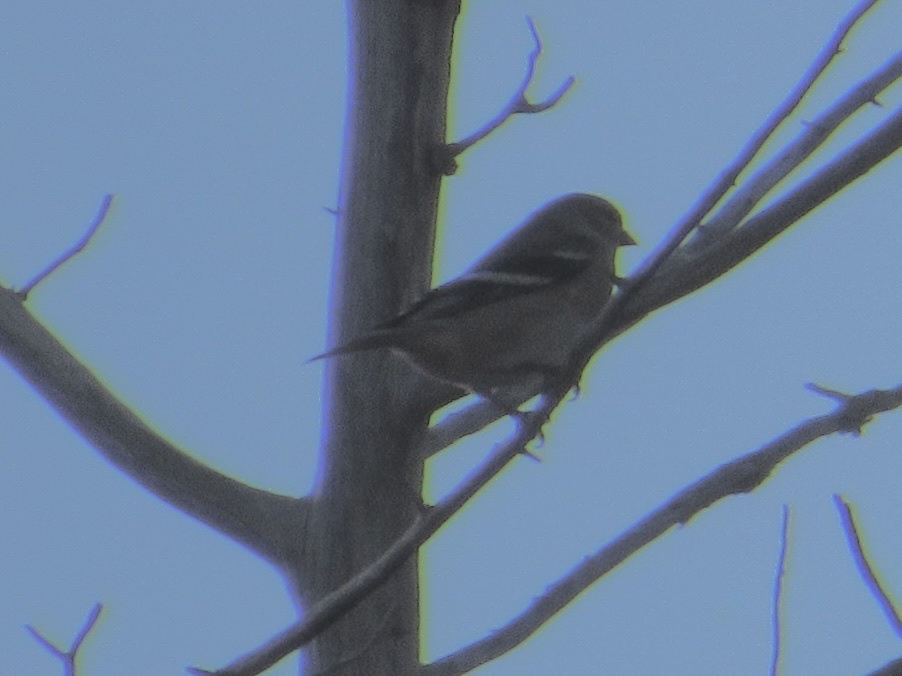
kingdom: Animalia
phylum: Chordata
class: Aves
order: Passeriformes
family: Fringillidae
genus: Spinus
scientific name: Spinus tristis
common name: American goldfinch
